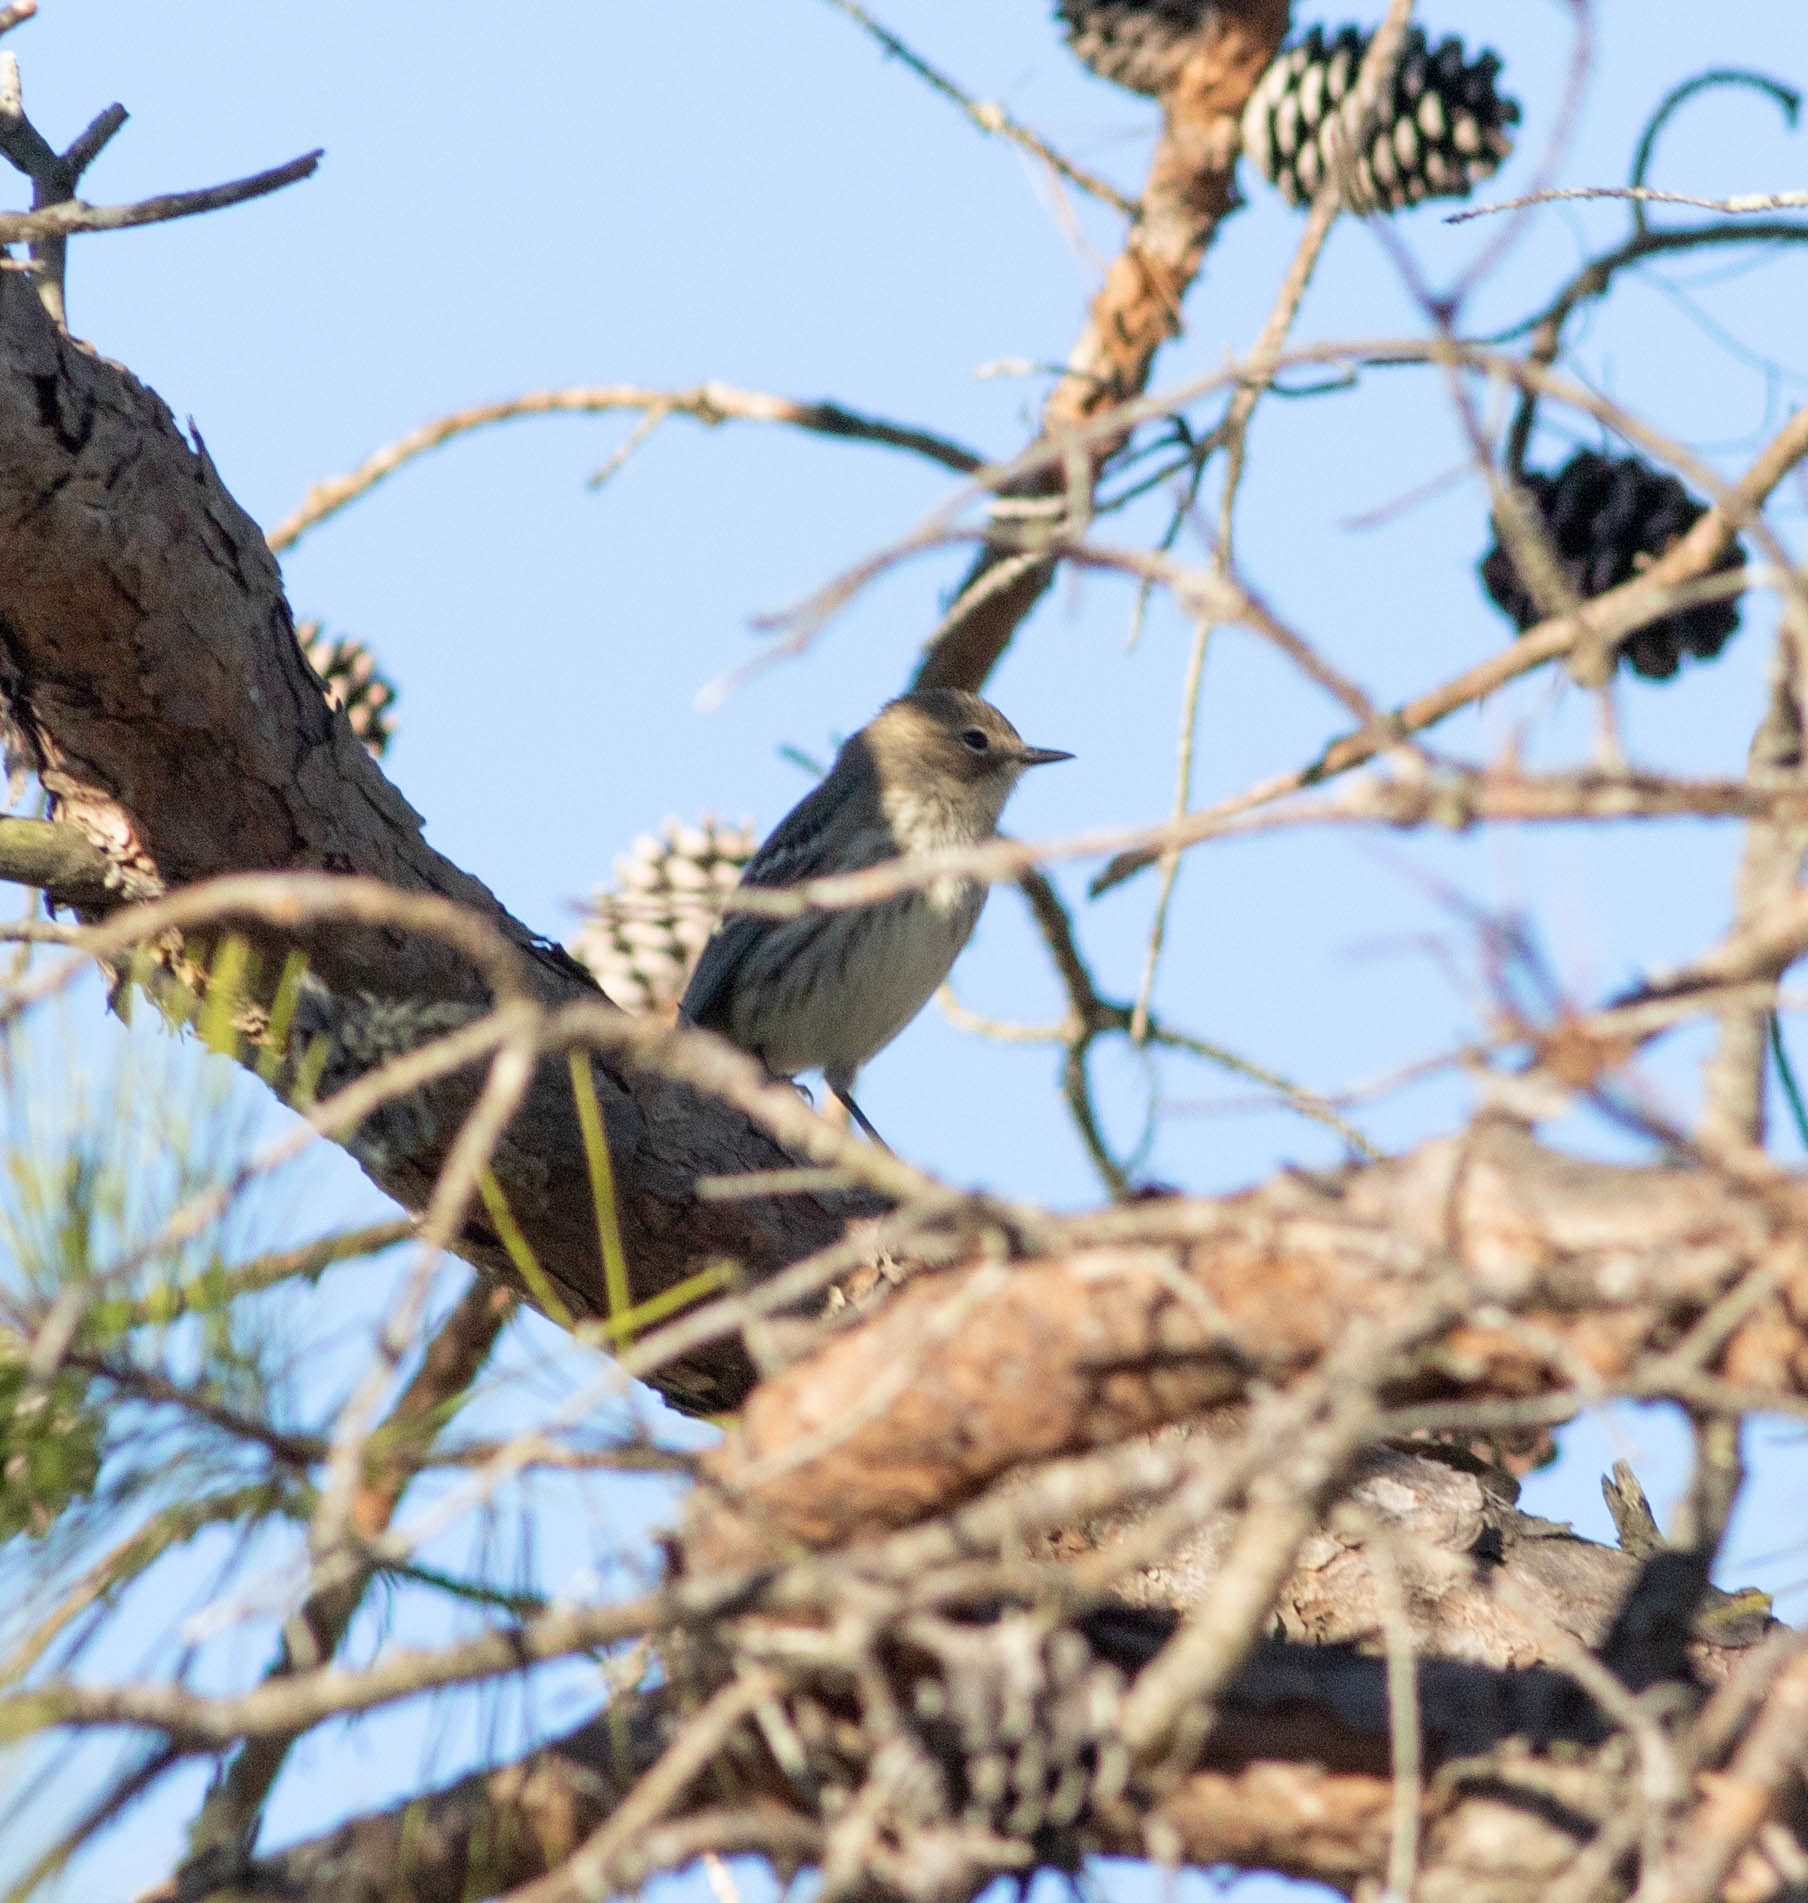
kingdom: Animalia
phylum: Chordata
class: Aves
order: Passeriformes
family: Parulidae
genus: Setophaga
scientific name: Setophaga coronata
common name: Myrtle warbler
